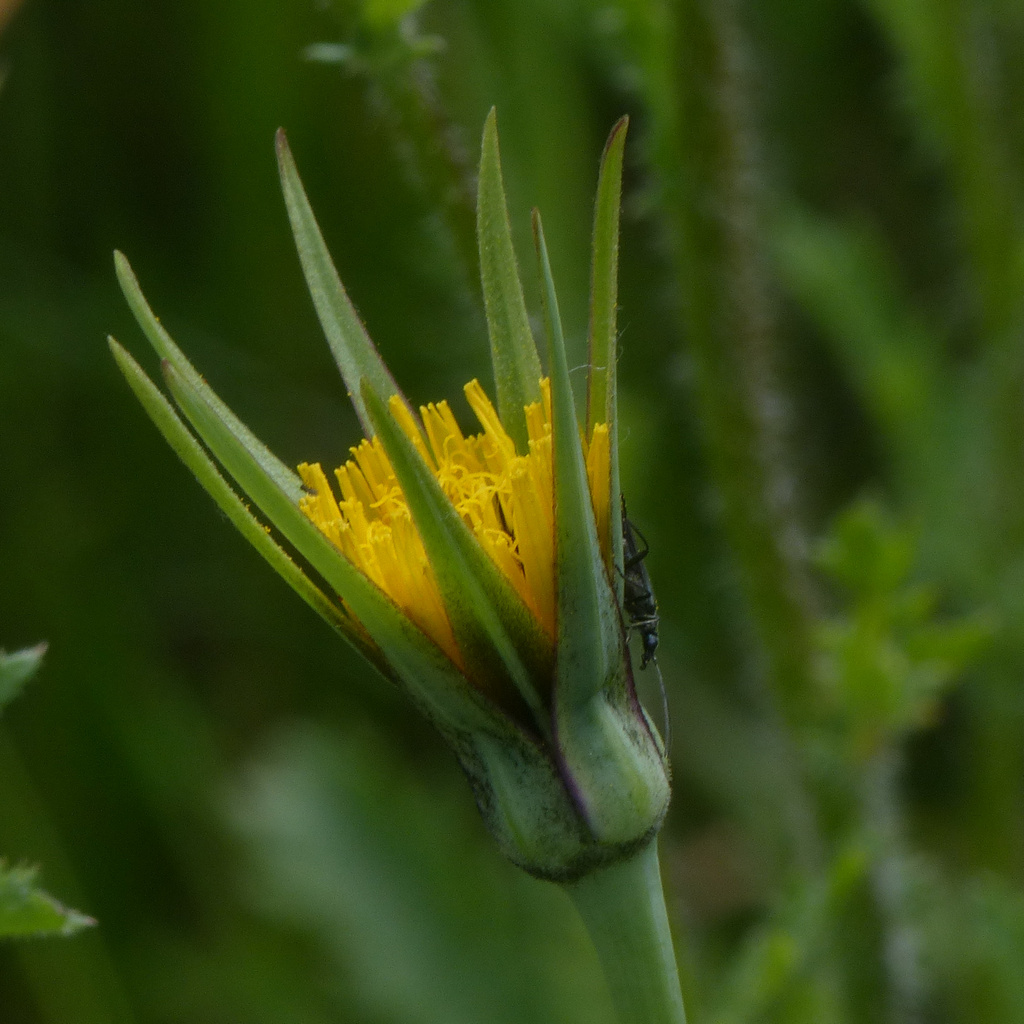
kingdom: Plantae
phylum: Tracheophyta
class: Magnoliopsida
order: Asterales
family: Asteraceae
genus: Tragopogon
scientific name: Tragopogon minor
